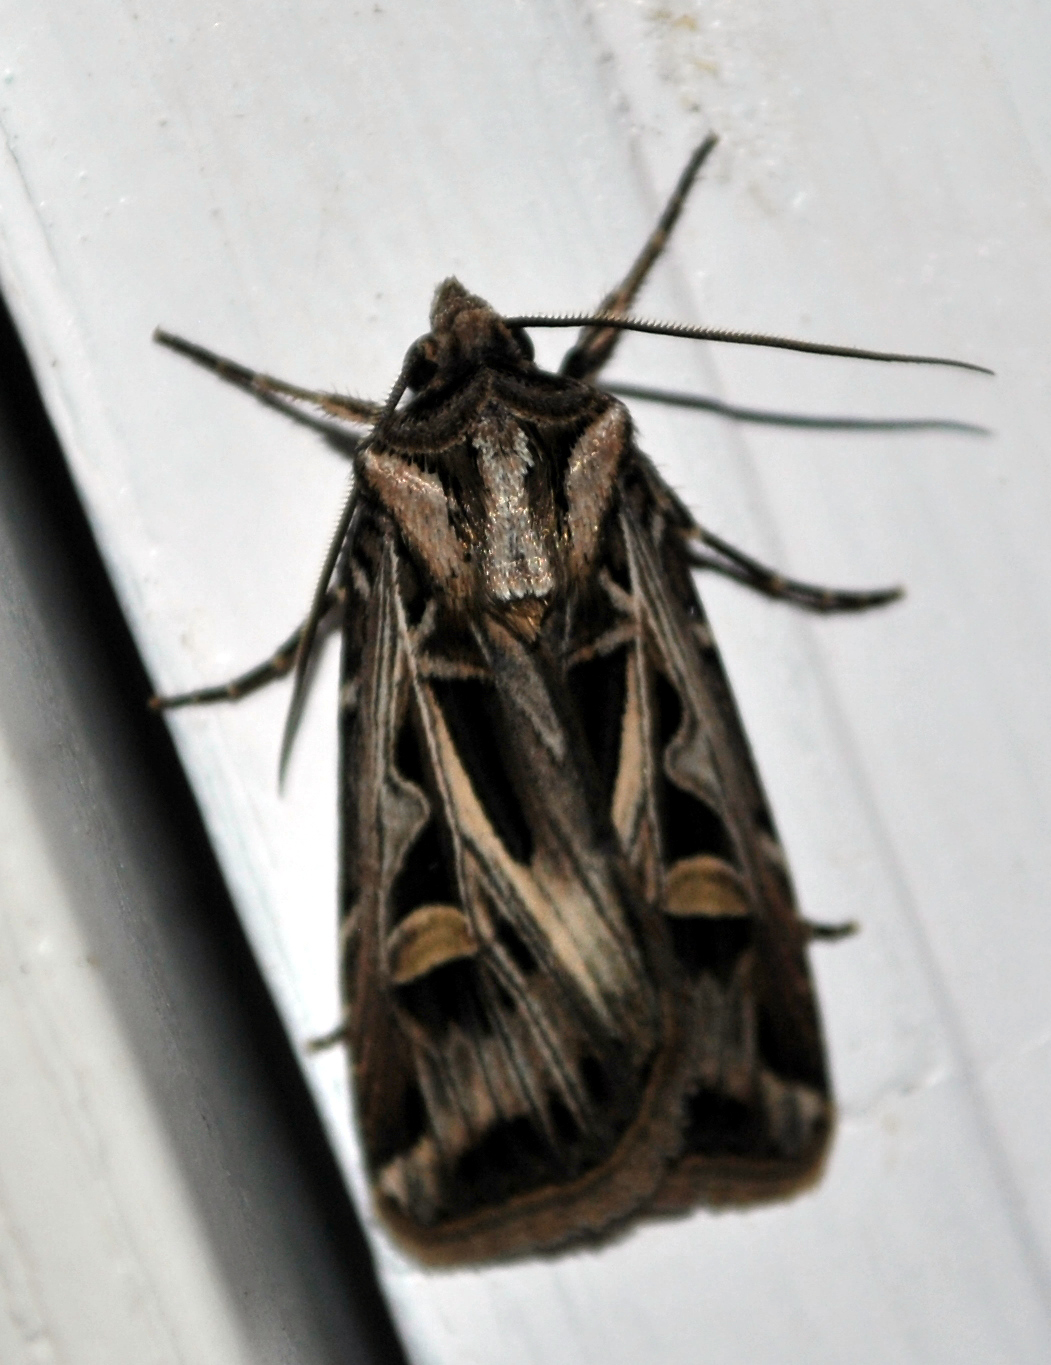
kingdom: Animalia
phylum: Arthropoda
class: Insecta
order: Lepidoptera
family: Noctuidae
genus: Feltia
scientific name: Feltia jaculifera
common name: Dingy cutworm moth
